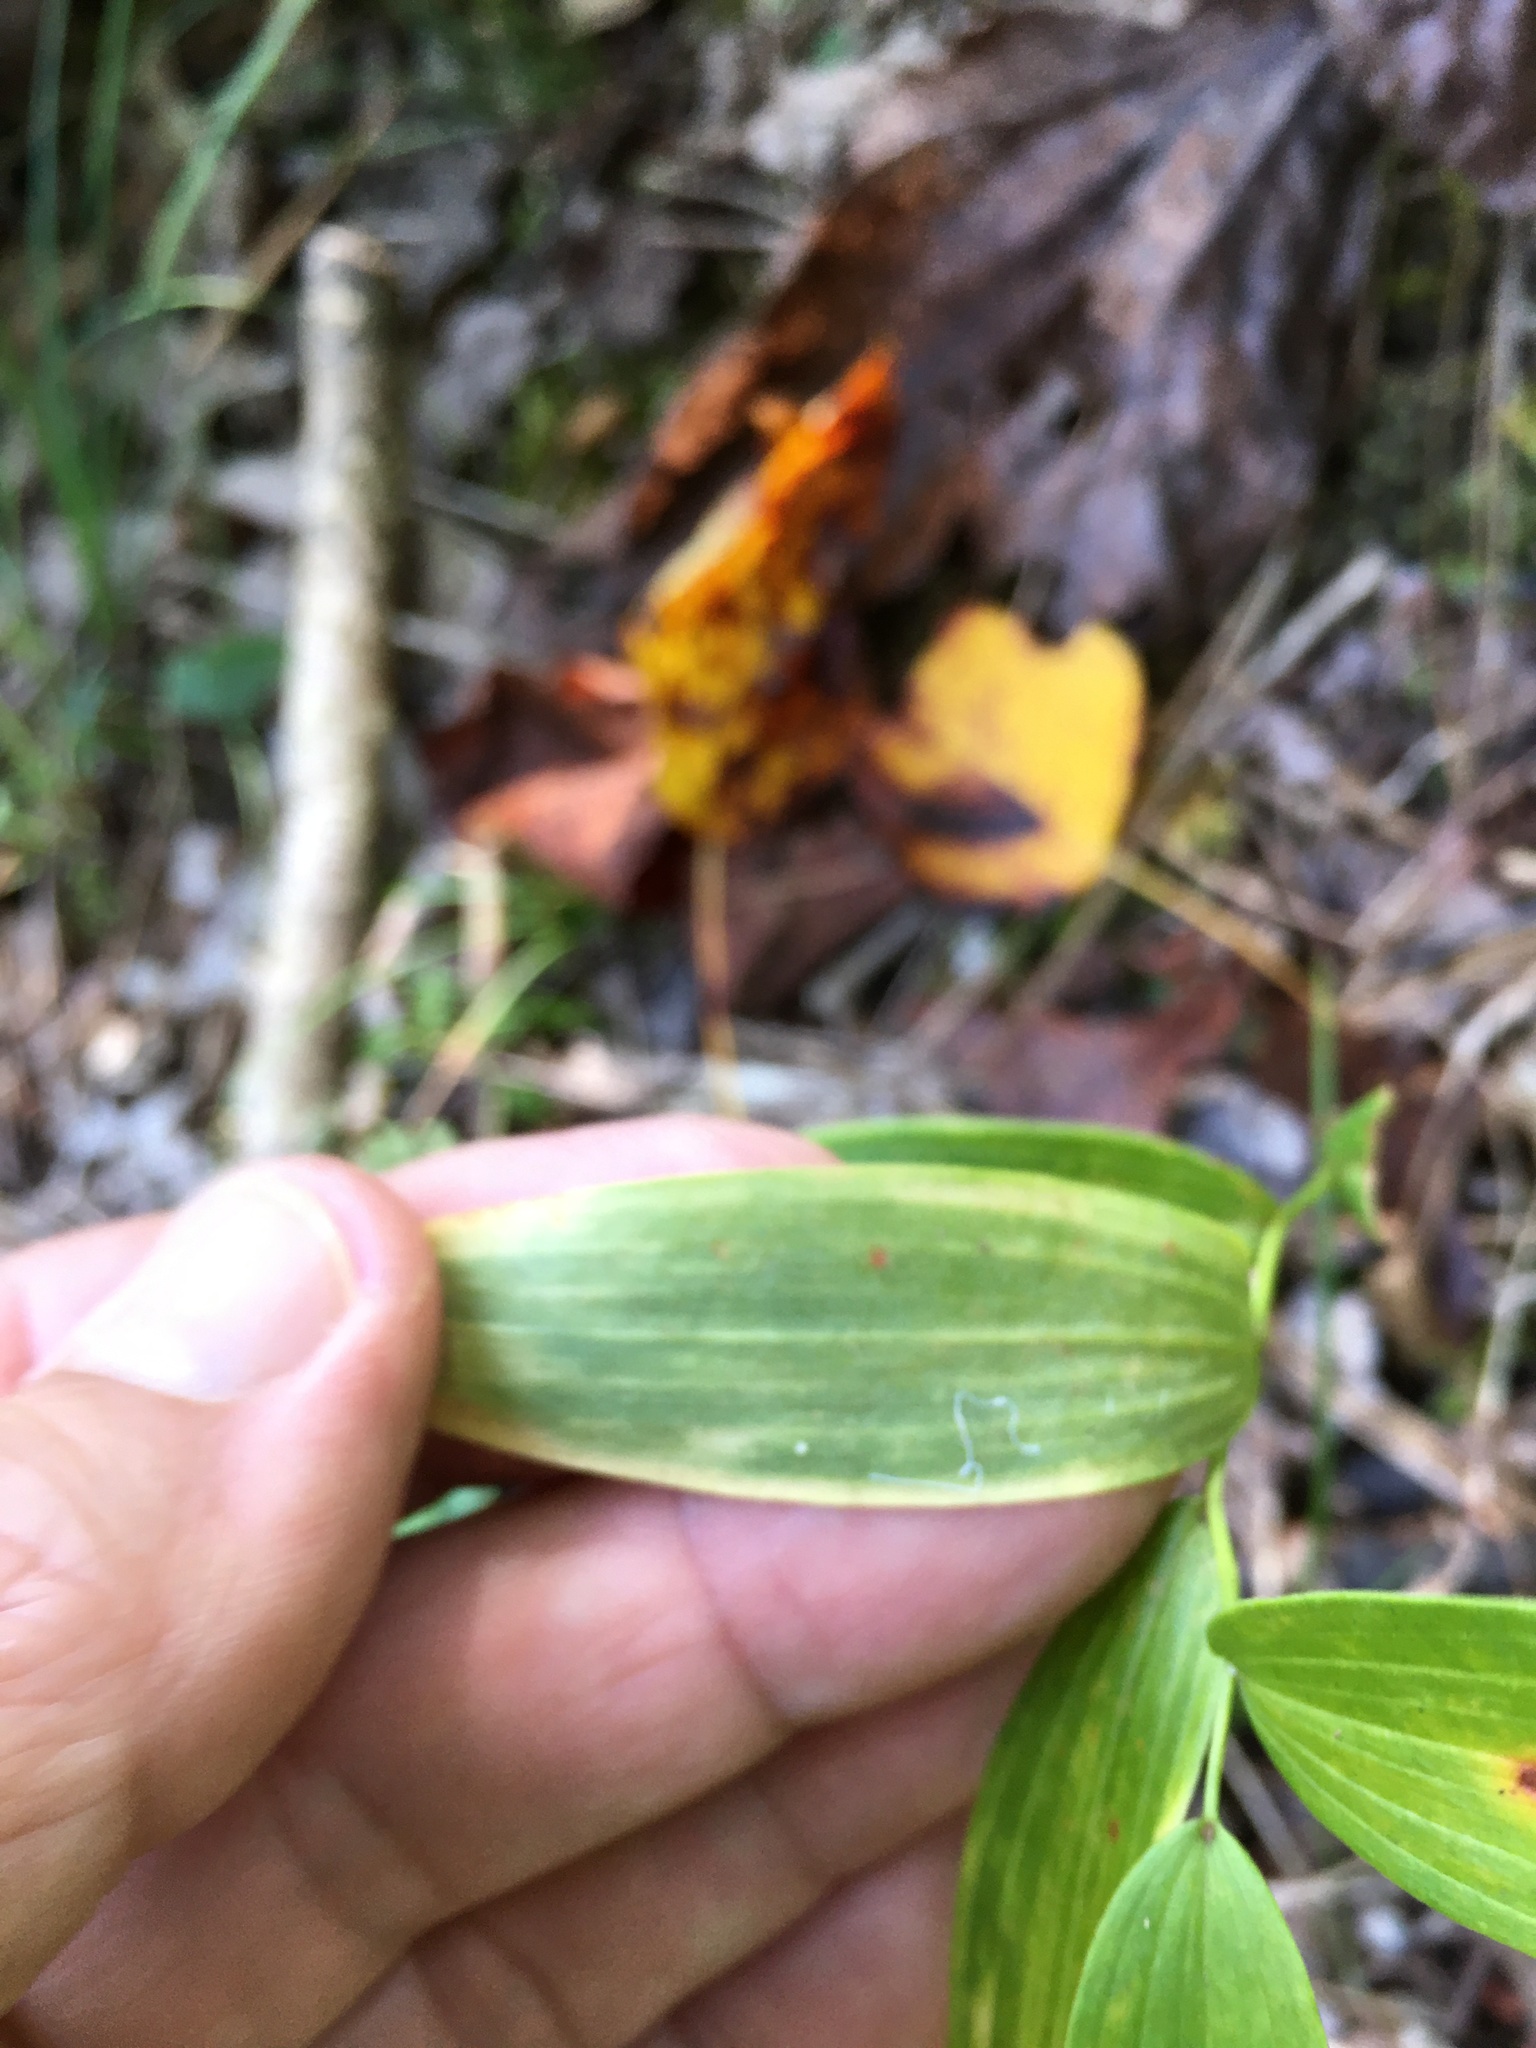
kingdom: Plantae
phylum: Tracheophyta
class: Liliopsida
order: Asparagales
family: Asparagaceae
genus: Polygonatum
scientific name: Polygonatum biflorum
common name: American solomon's-seal
